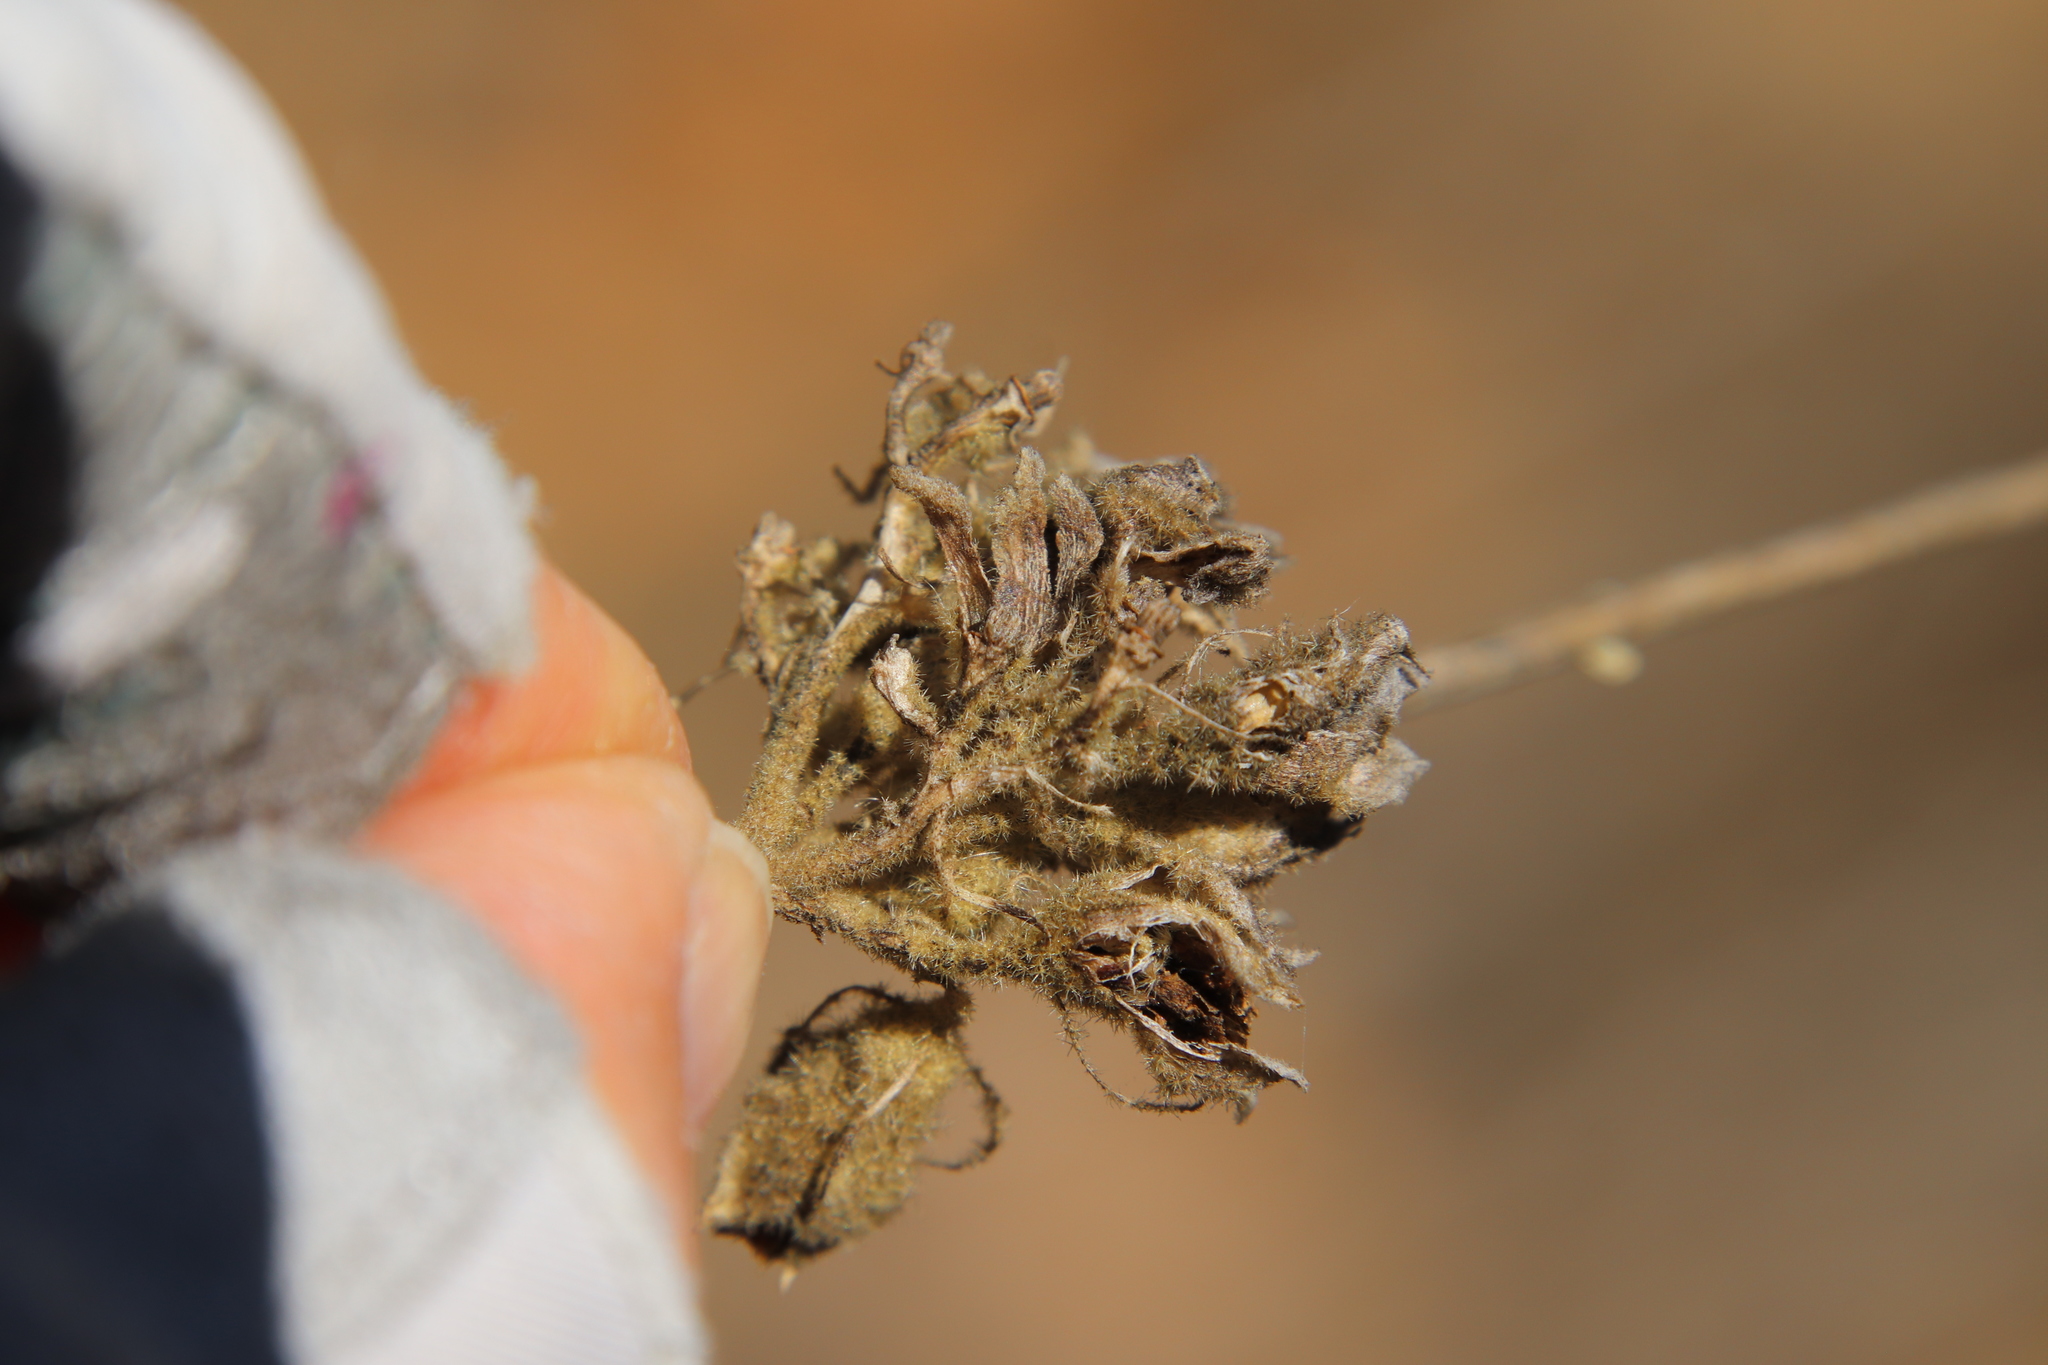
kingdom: Plantae
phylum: Tracheophyta
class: Magnoliopsida
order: Malvales
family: Malvaceae
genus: Malacothamnus
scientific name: Malacothamnus densiflorus
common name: Yellow-stem bush-mallow
